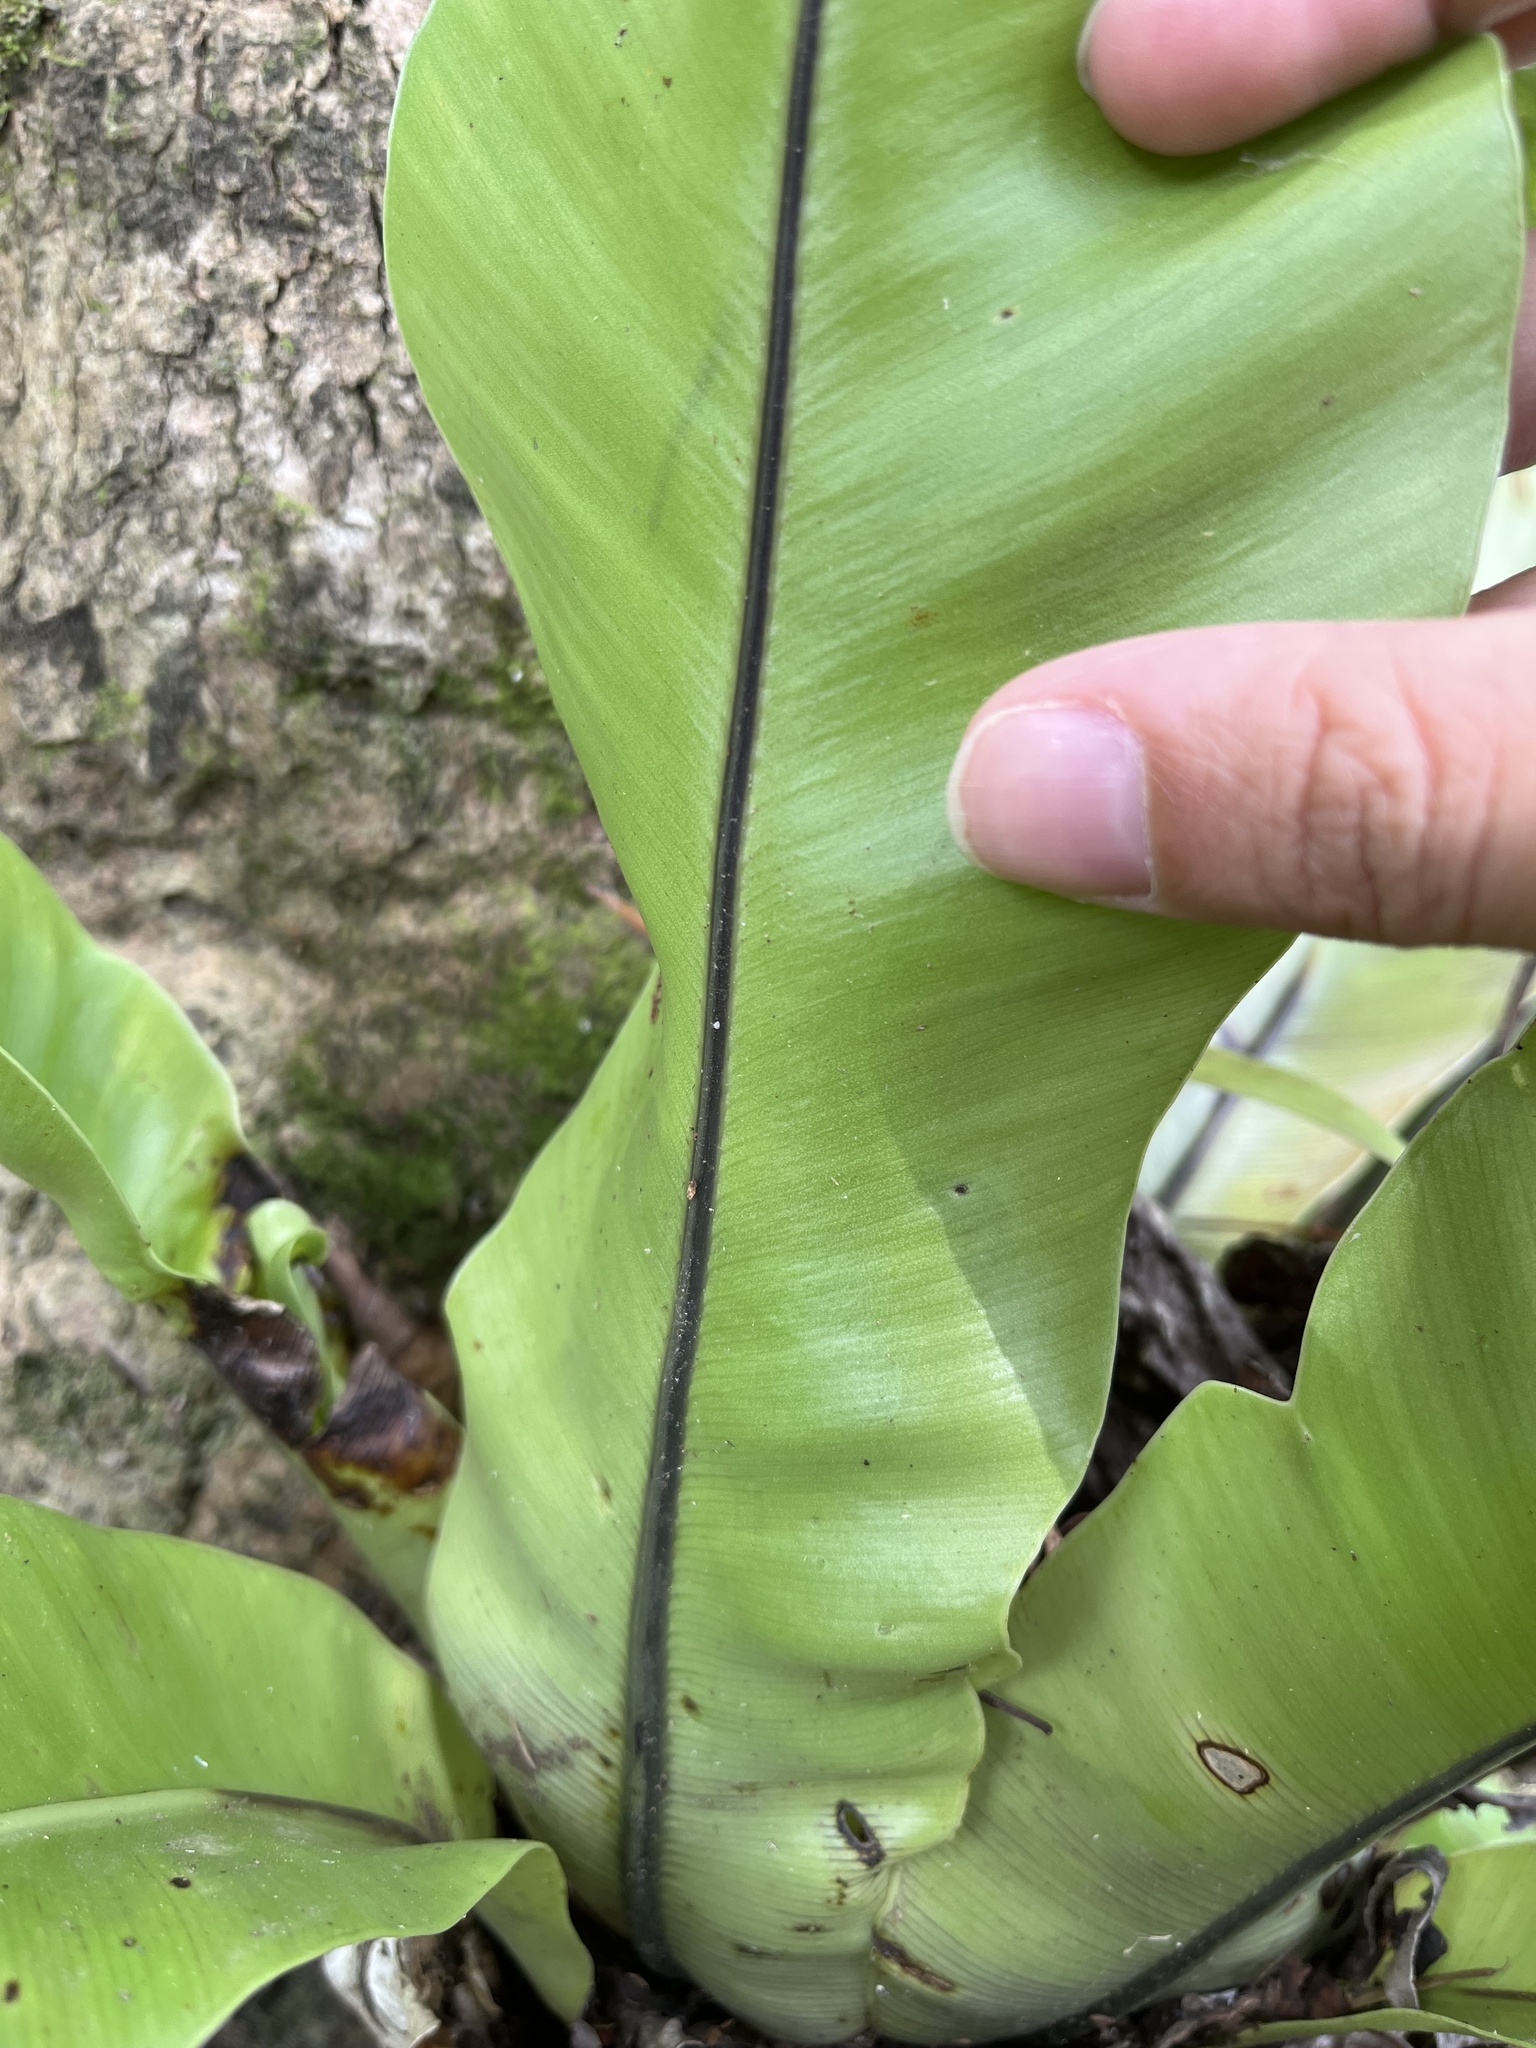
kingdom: Plantae
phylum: Tracheophyta
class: Polypodiopsida
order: Polypodiales
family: Aspleniaceae
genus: Asplenium
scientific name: Asplenium setoi
